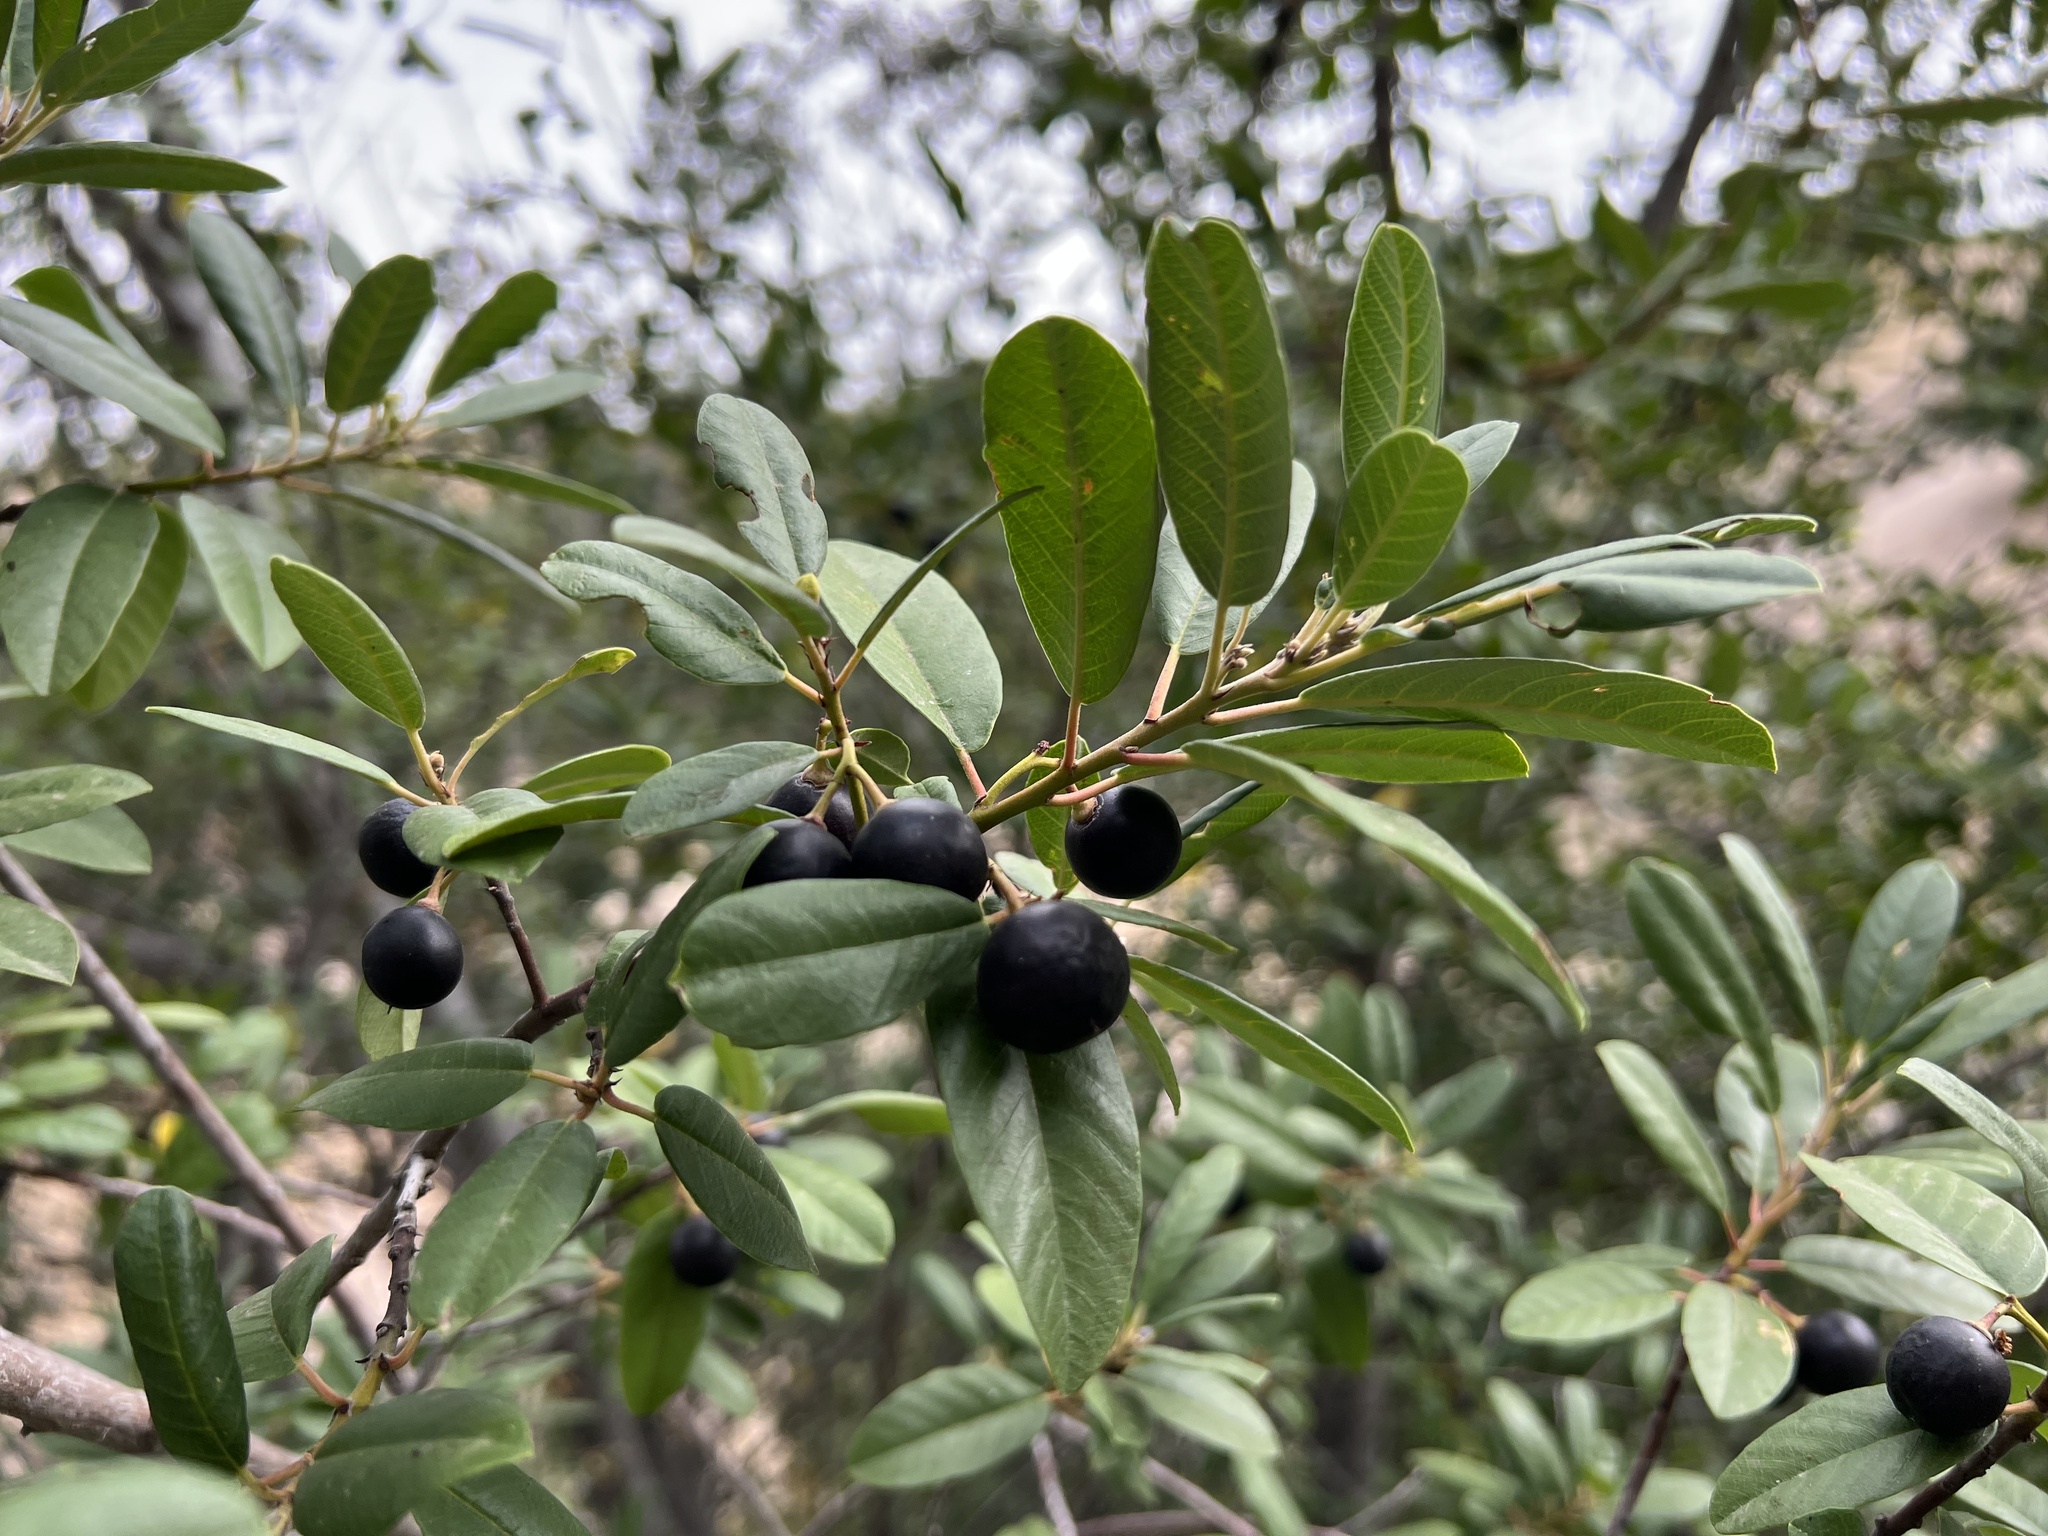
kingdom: Plantae
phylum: Tracheophyta
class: Magnoliopsida
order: Rosales
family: Rhamnaceae
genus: Frangula
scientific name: Frangula californica
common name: California buckthorn
